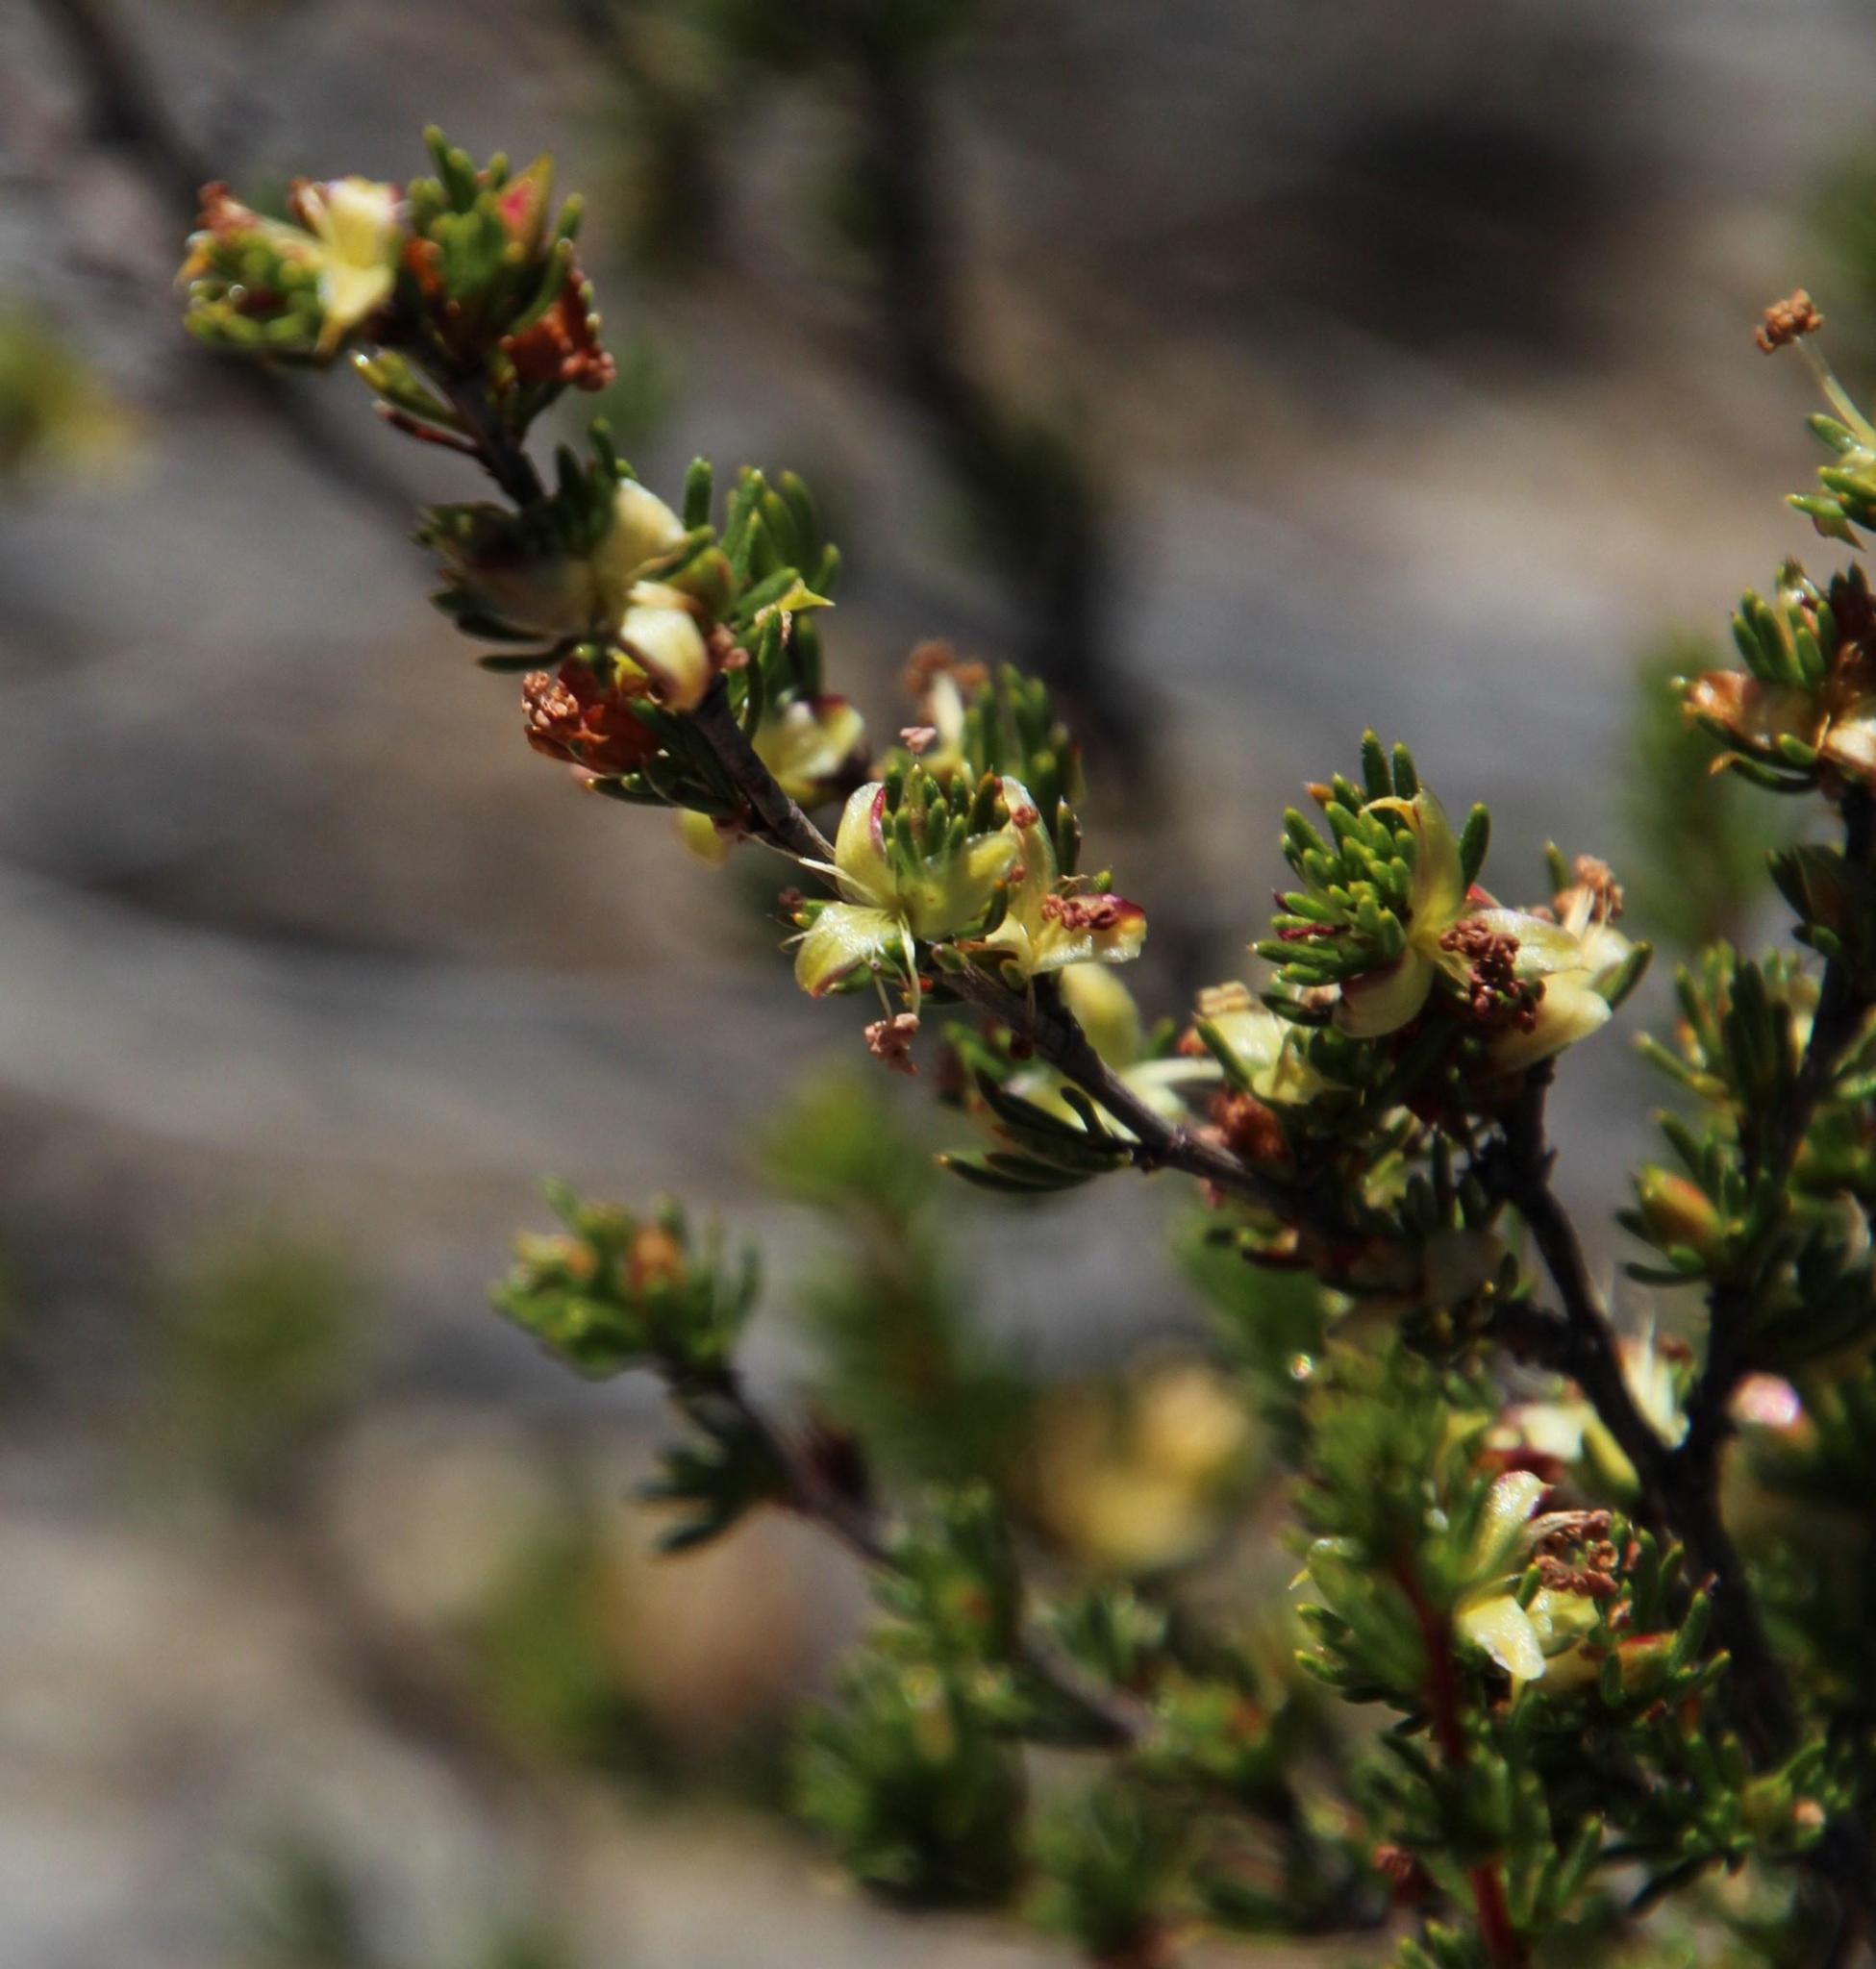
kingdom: Plantae
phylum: Tracheophyta
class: Magnoliopsida
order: Rosales
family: Rosaceae
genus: Cliffortia
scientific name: Cliffortia teretifolia
